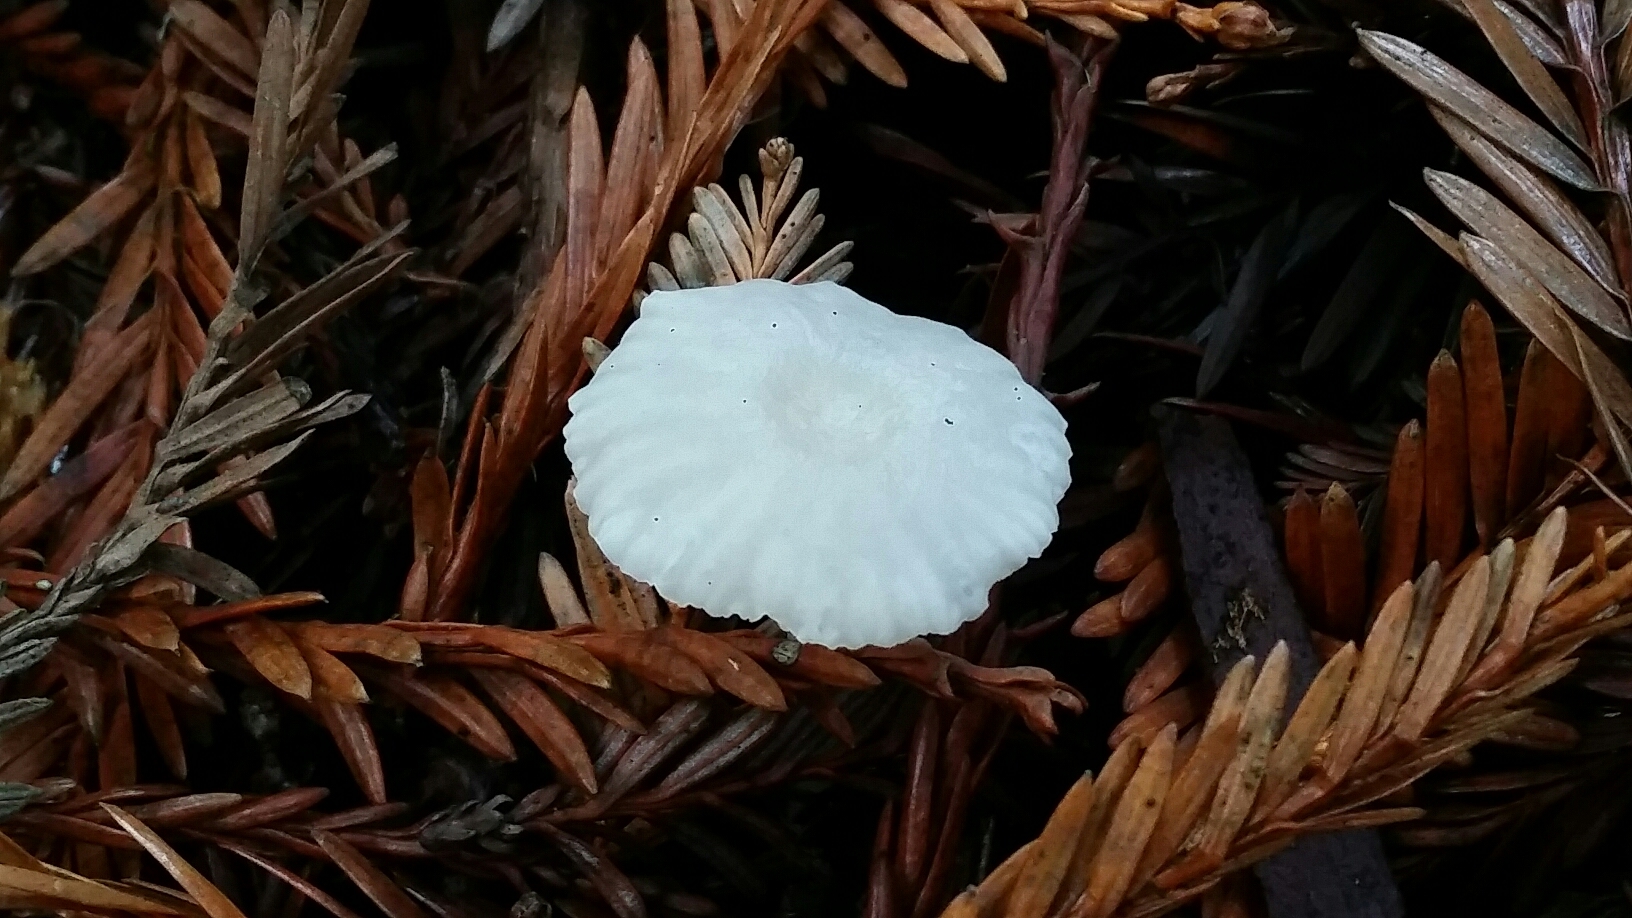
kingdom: Fungi
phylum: Basidiomycota
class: Agaricomycetes
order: Agaricales
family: Marasmiaceae
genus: Marasmius
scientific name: Marasmius calhouniae
